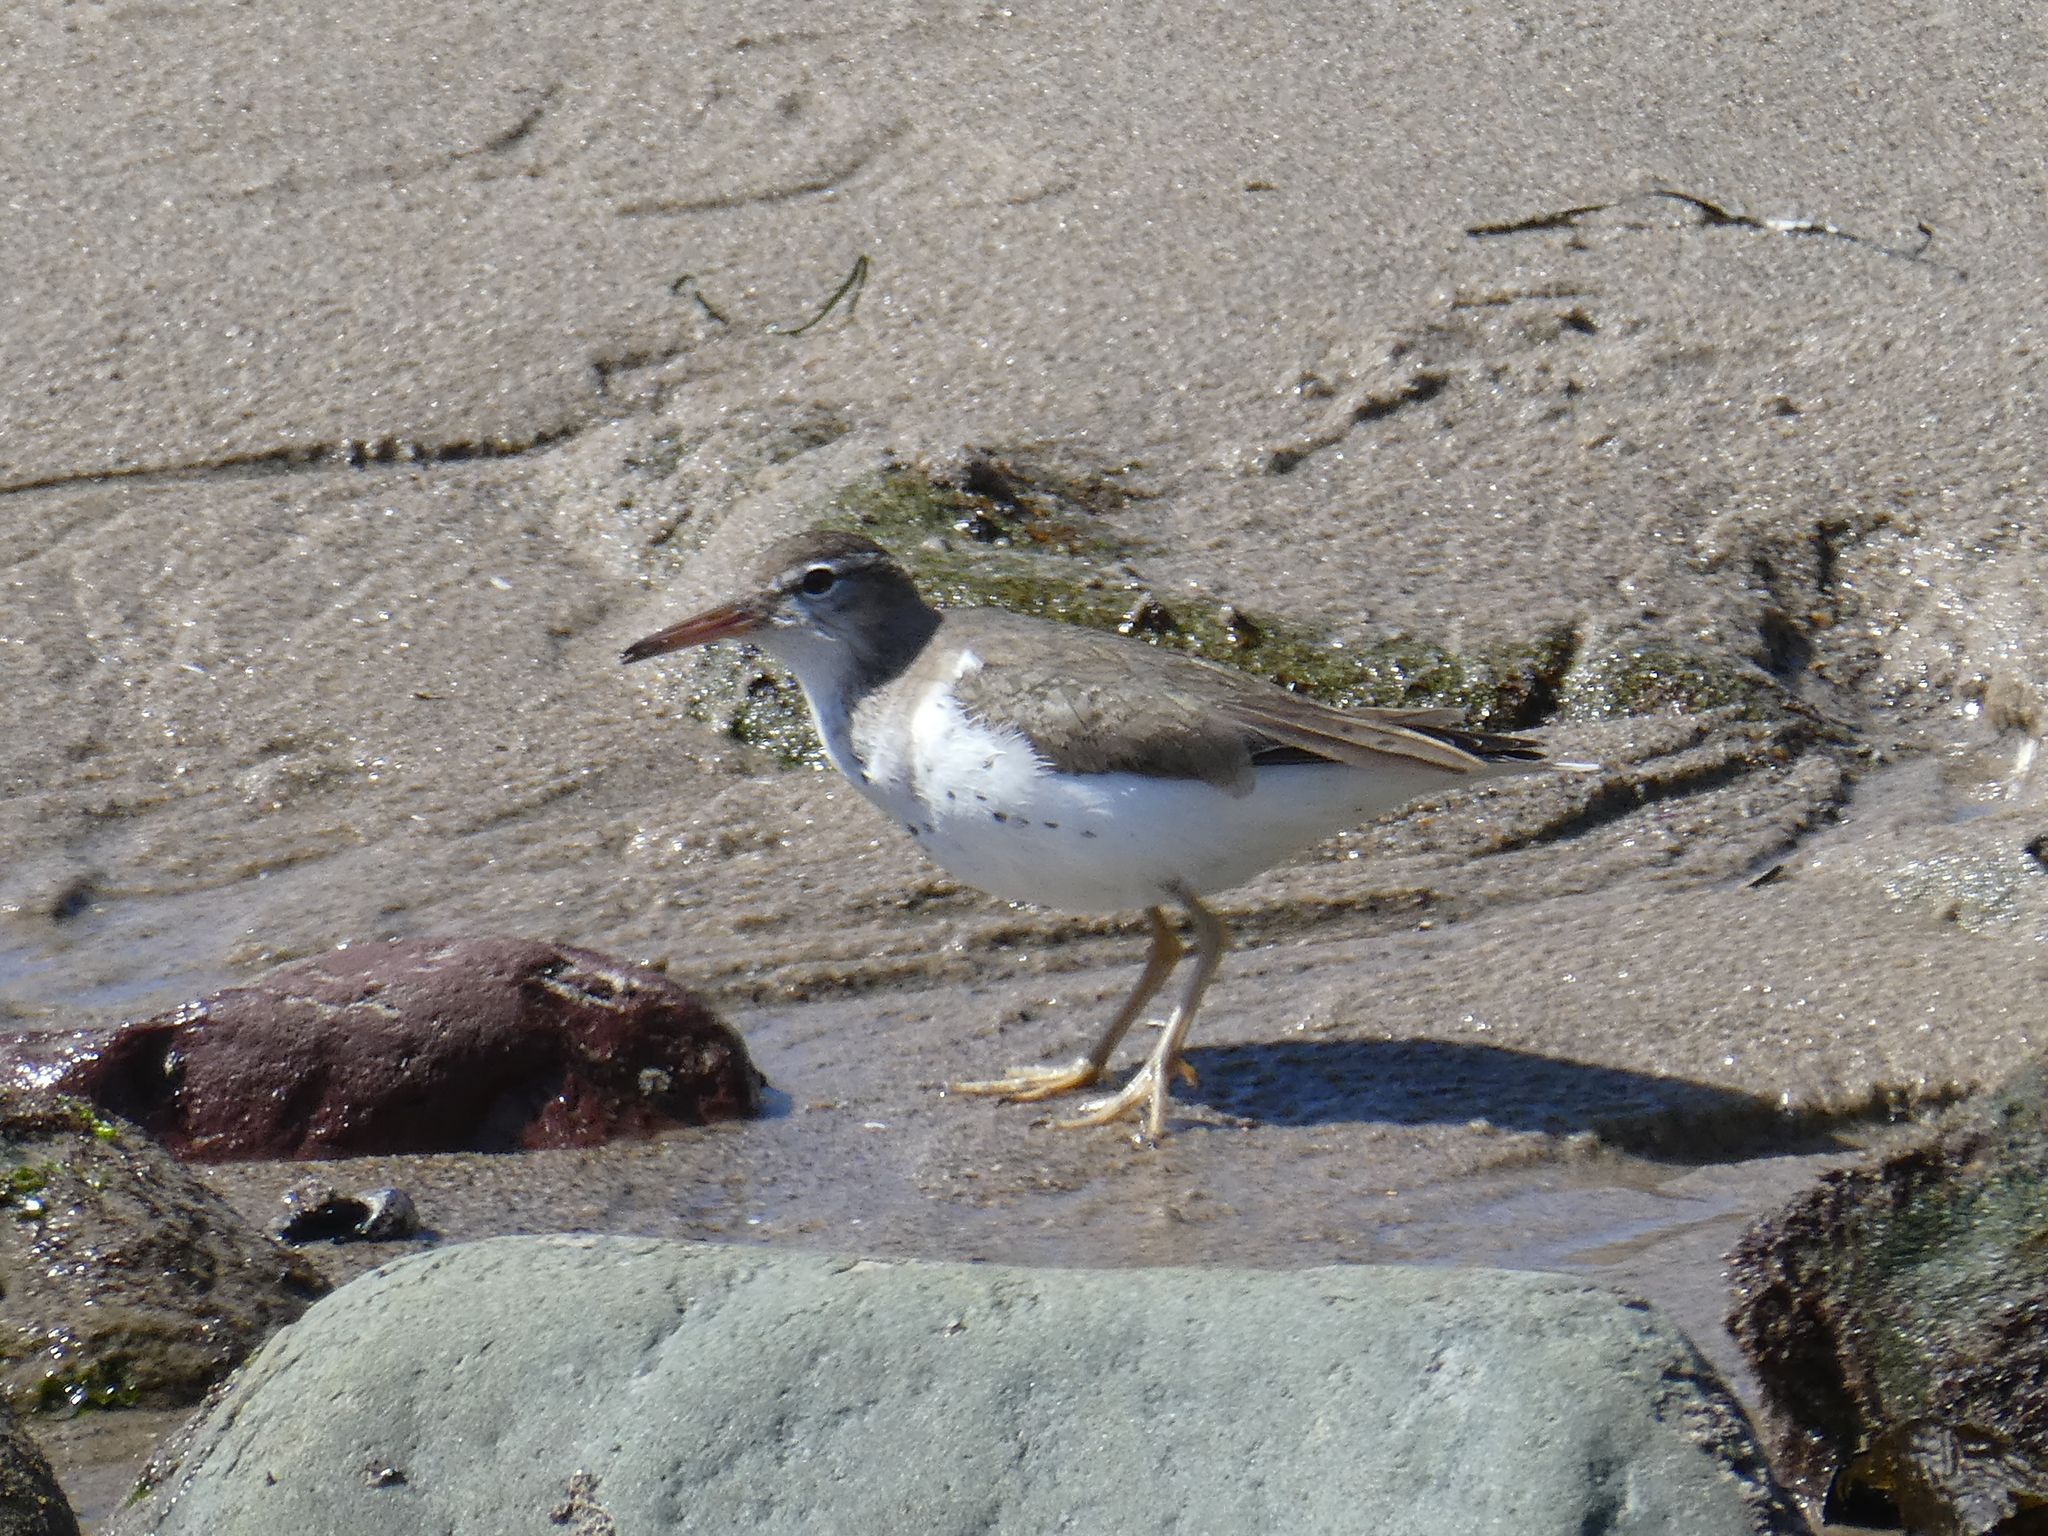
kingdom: Animalia
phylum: Chordata
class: Aves
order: Charadriiformes
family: Scolopacidae
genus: Actitis
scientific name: Actitis macularius
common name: Spotted sandpiper
